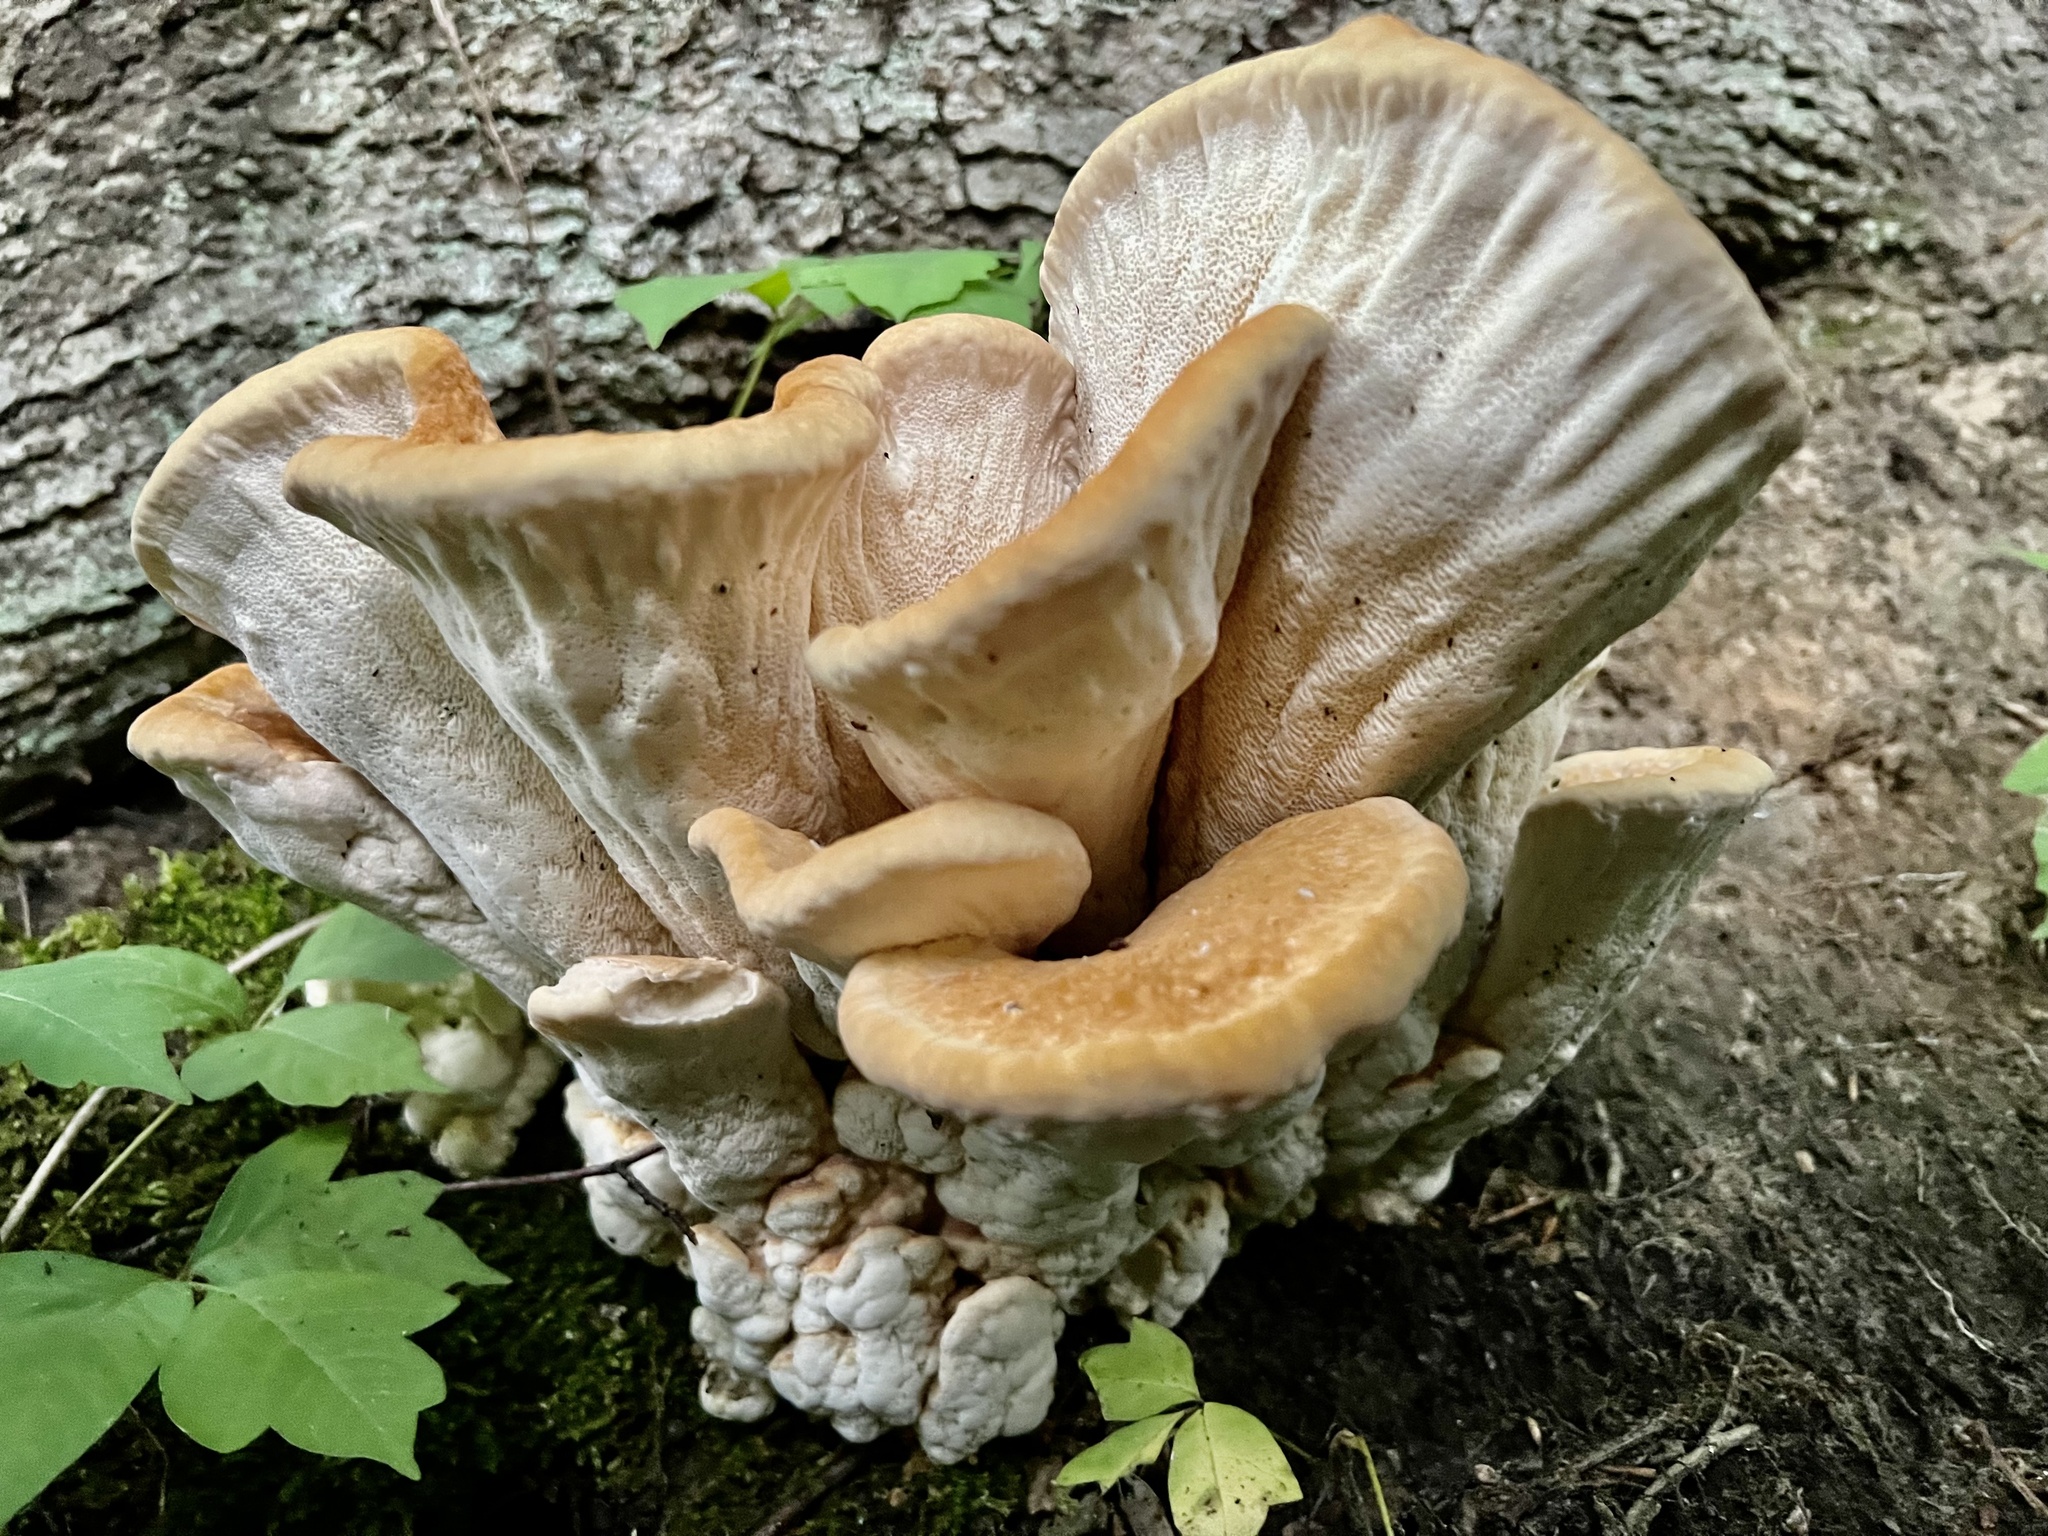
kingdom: Fungi
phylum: Basidiomycota
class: Agaricomycetes
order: Russulales
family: Bondarzewiaceae
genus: Bondarzewia
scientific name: Bondarzewia berkeleyi
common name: Berkeley's polypore
